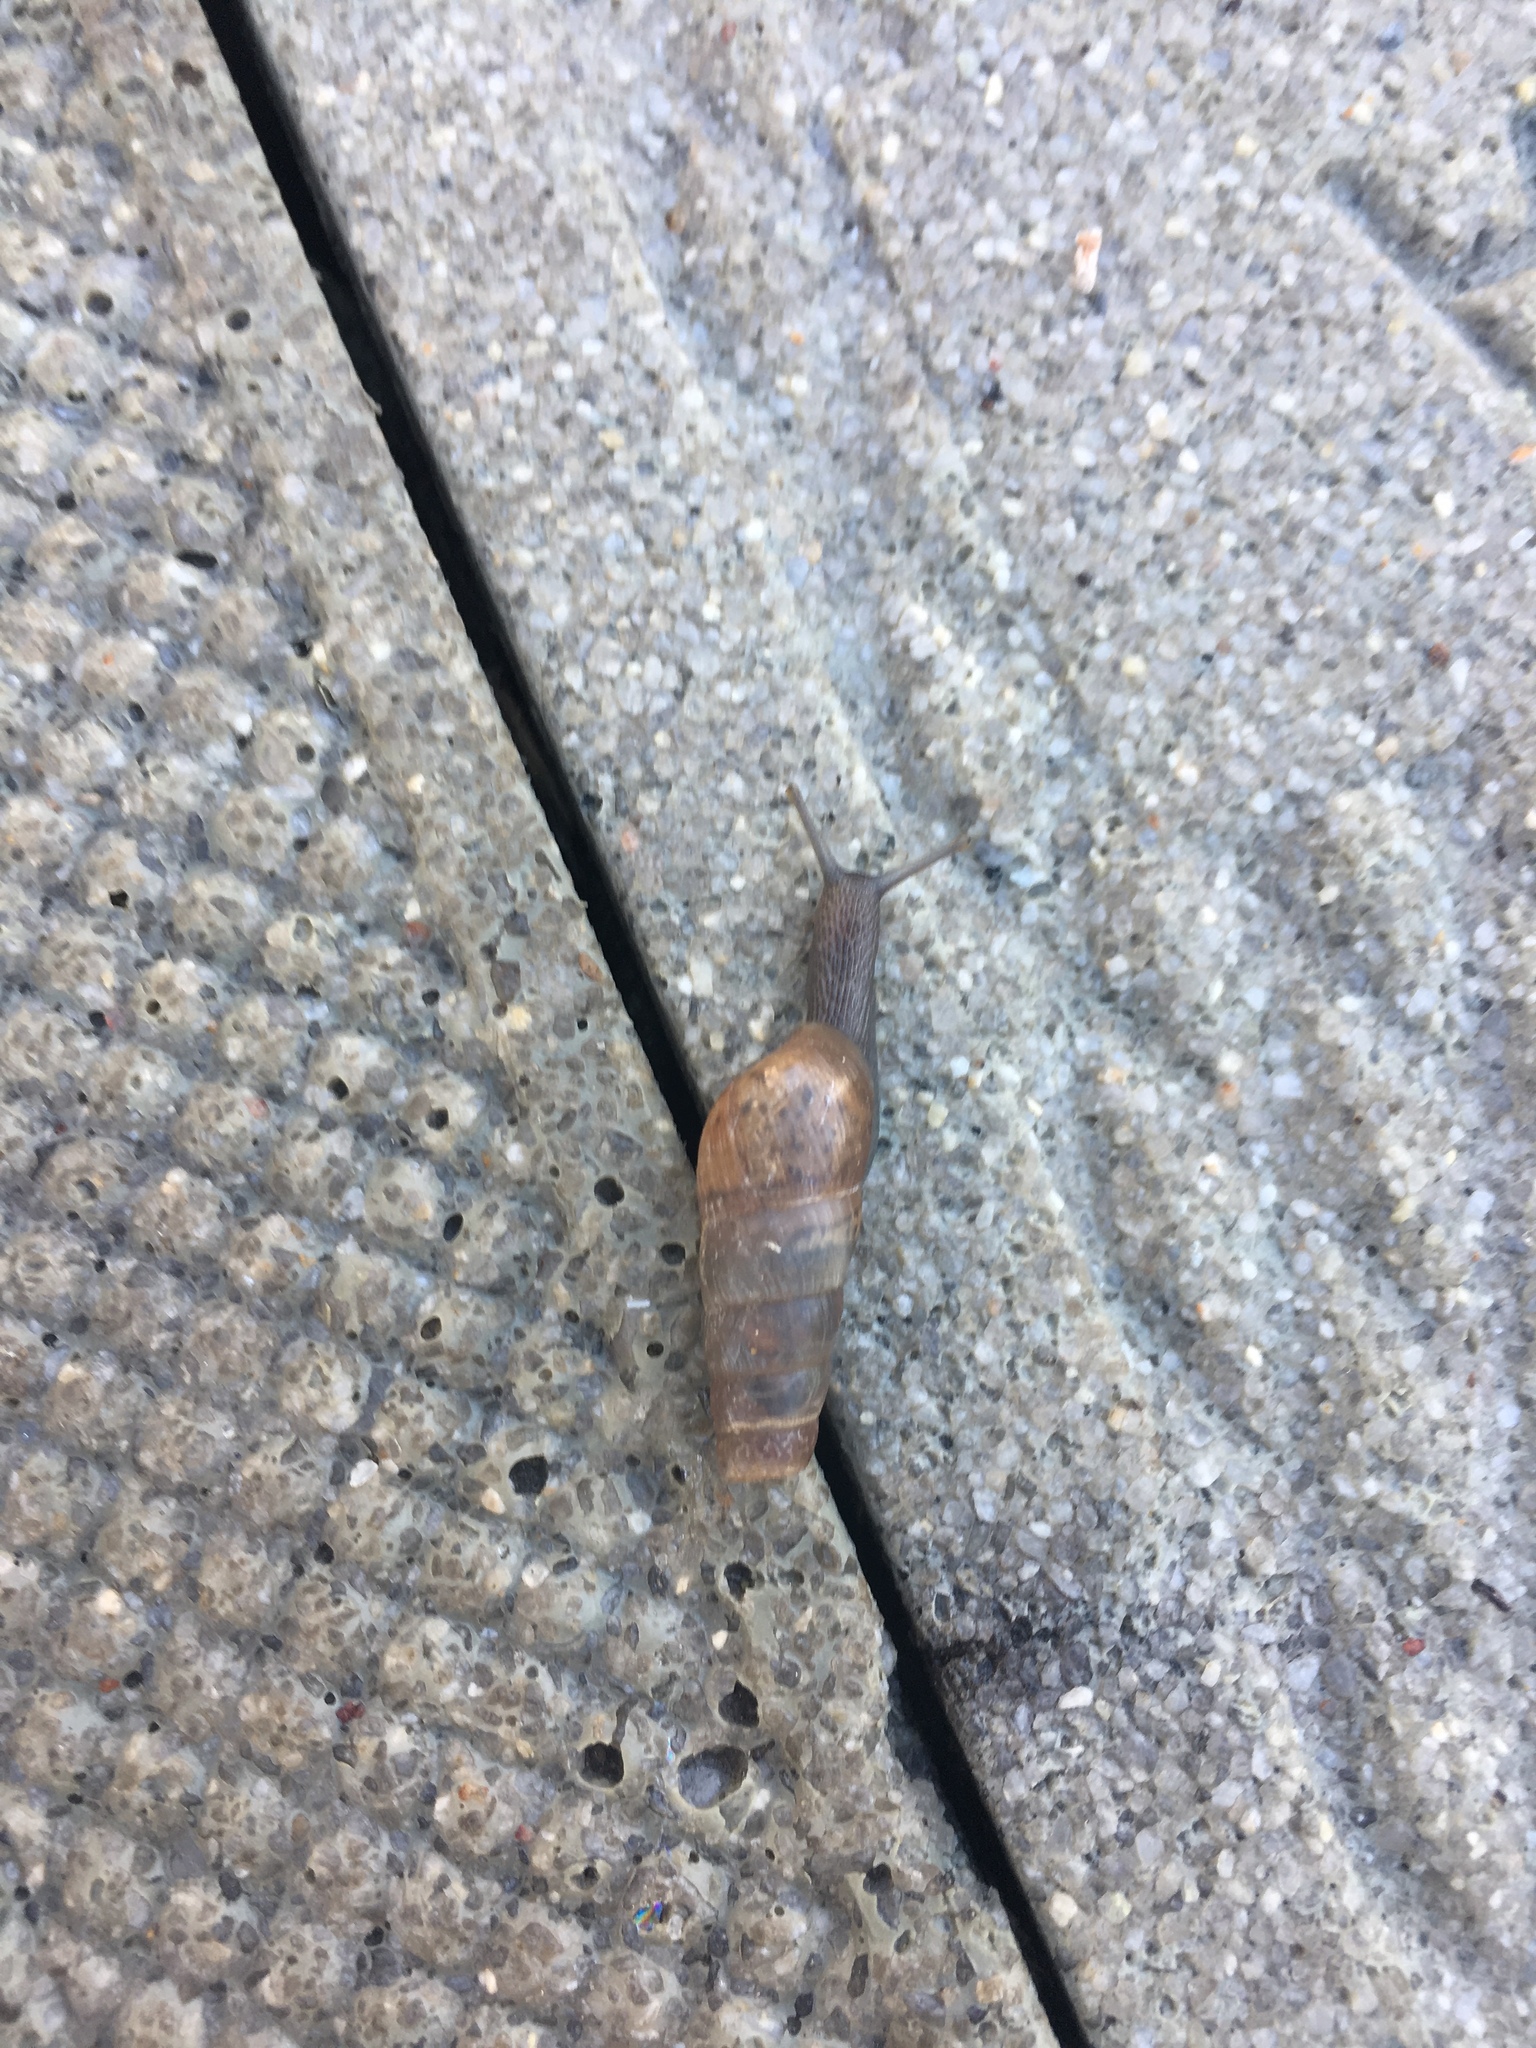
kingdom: Animalia
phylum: Mollusca
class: Gastropoda
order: Stylommatophora
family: Achatinidae
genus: Rumina
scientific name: Rumina decollata
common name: Decollate snail
